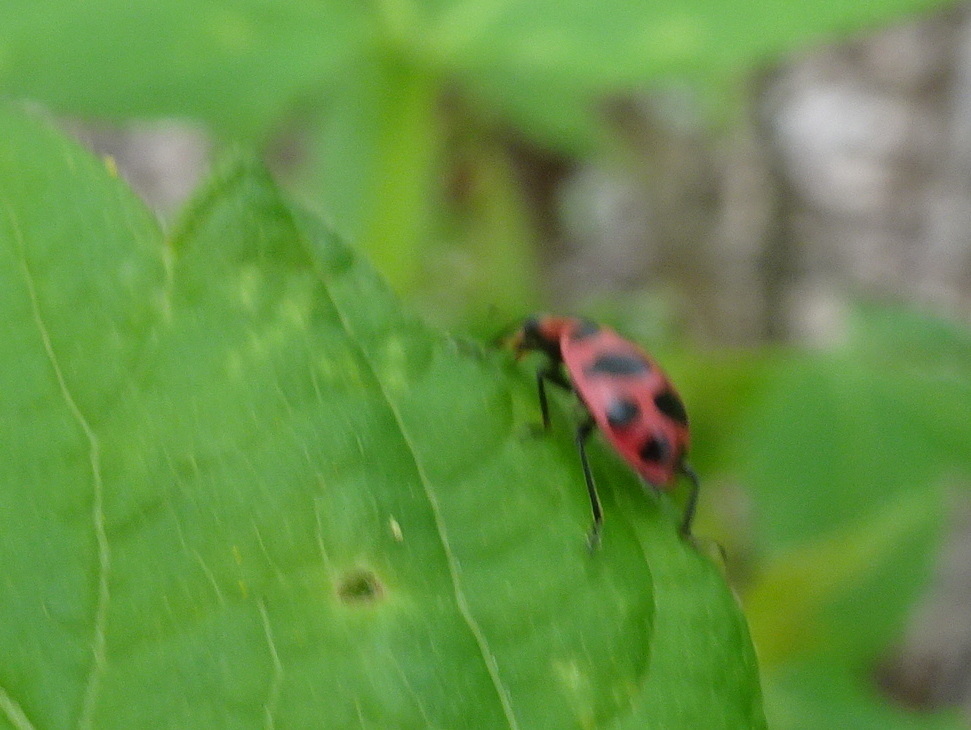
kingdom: Animalia
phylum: Arthropoda
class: Insecta
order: Coleoptera
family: Coccinellidae
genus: Coleomegilla
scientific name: Coleomegilla maculata
